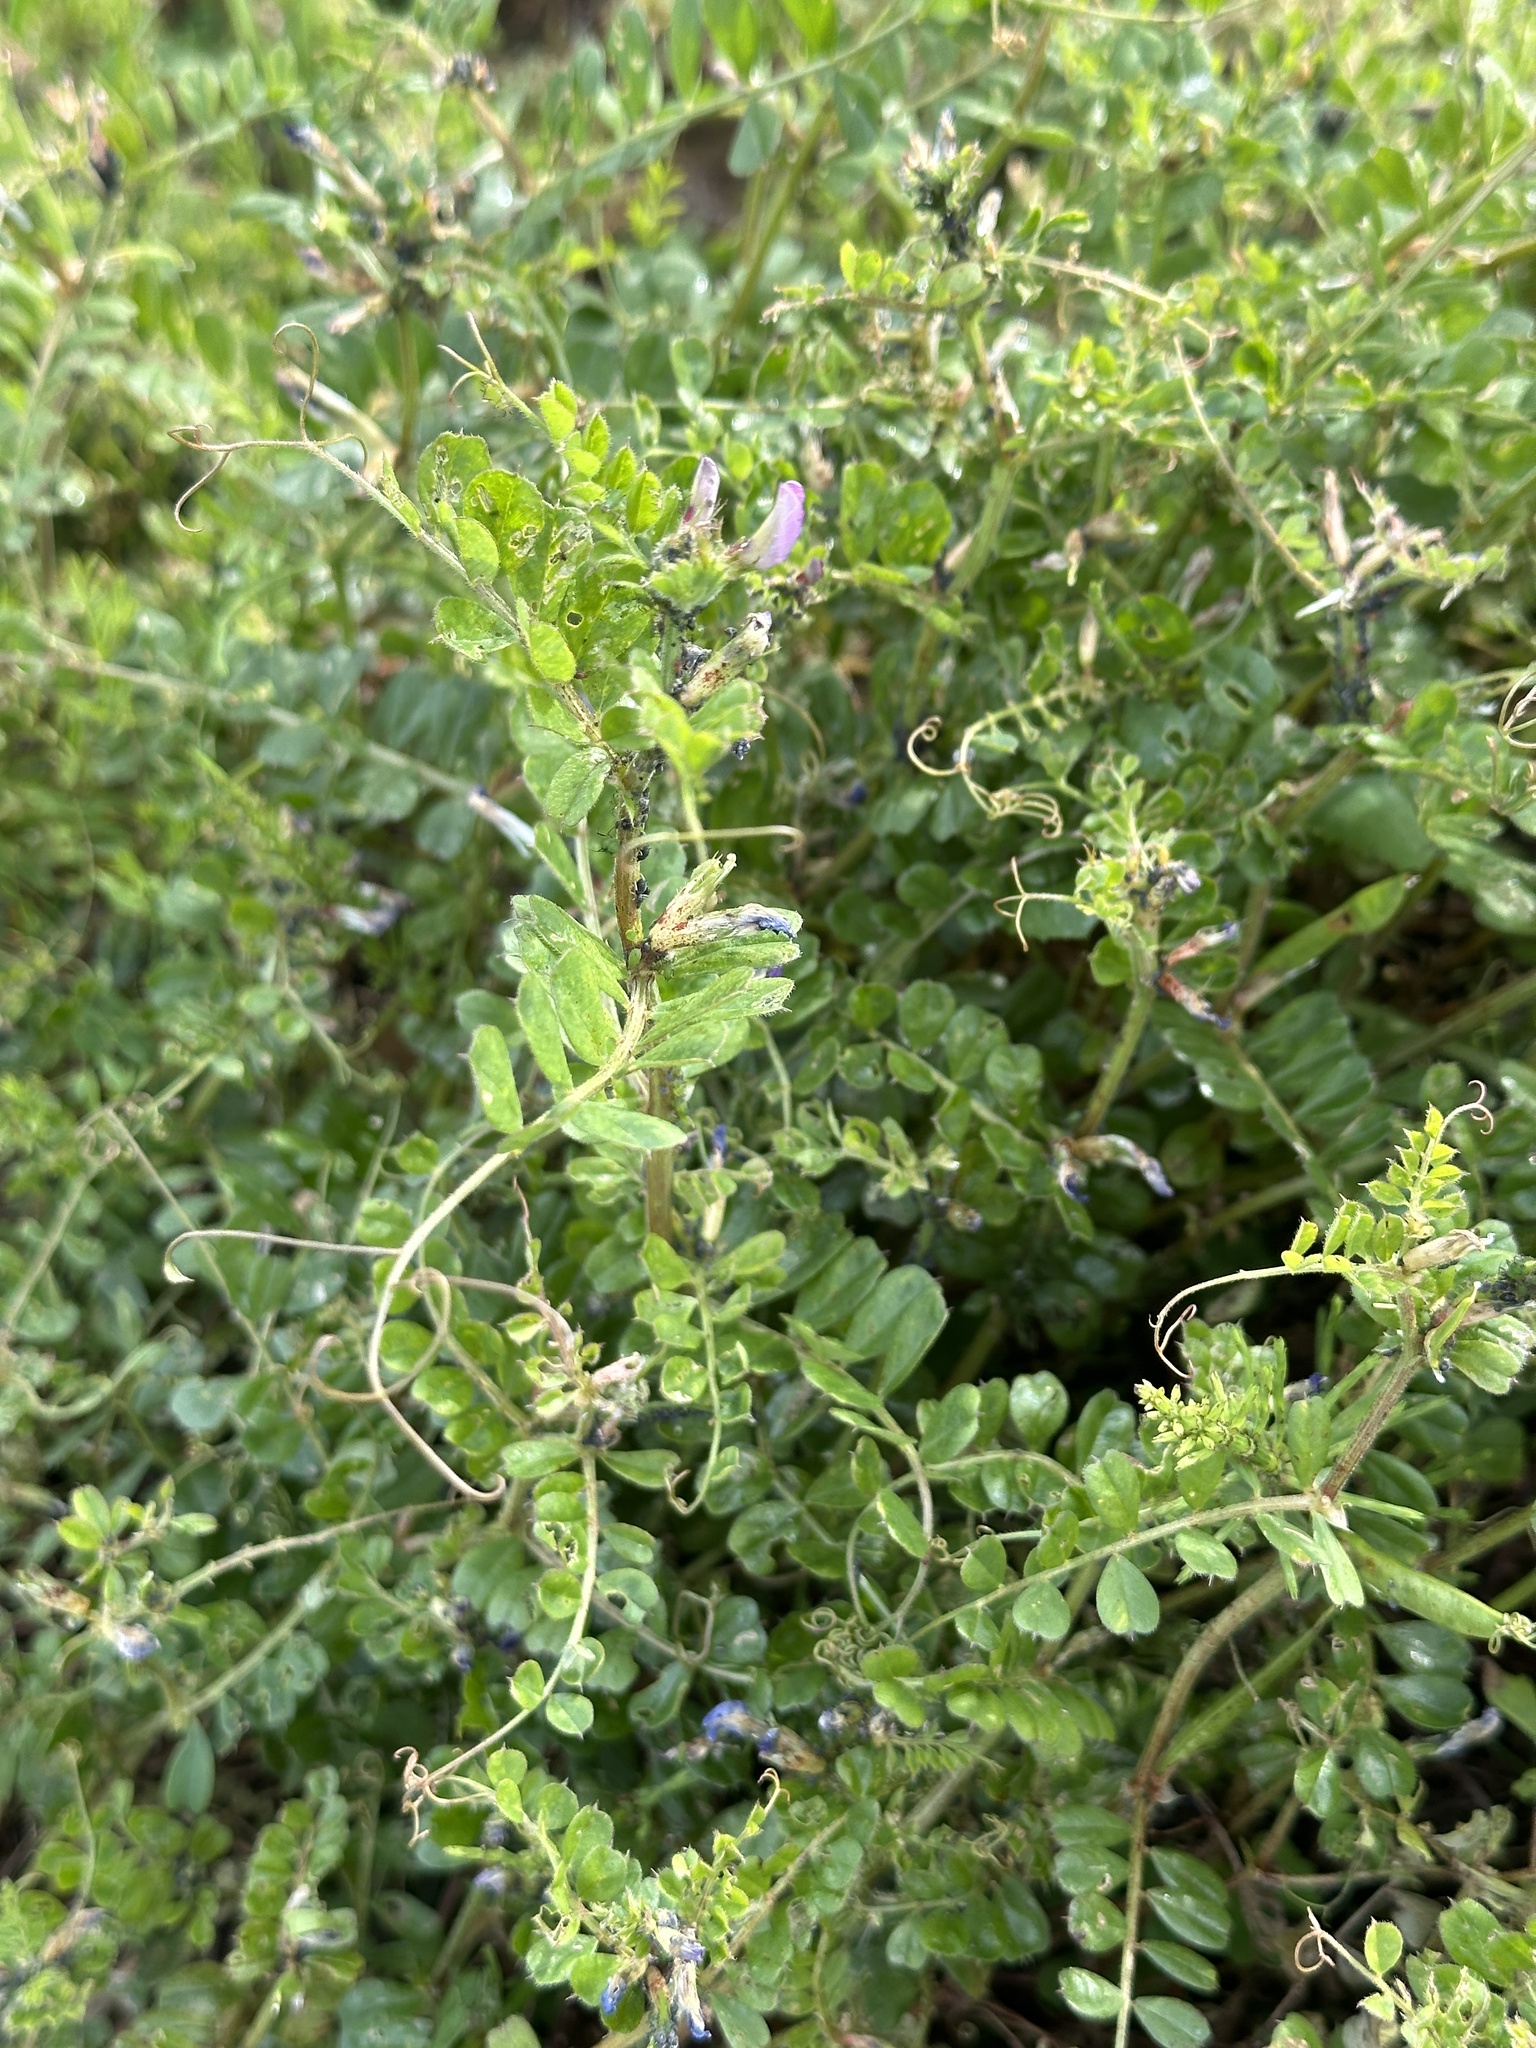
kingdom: Plantae
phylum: Tracheophyta
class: Magnoliopsida
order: Fabales
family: Fabaceae
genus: Vicia
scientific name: Vicia sativa
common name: Garden vetch
